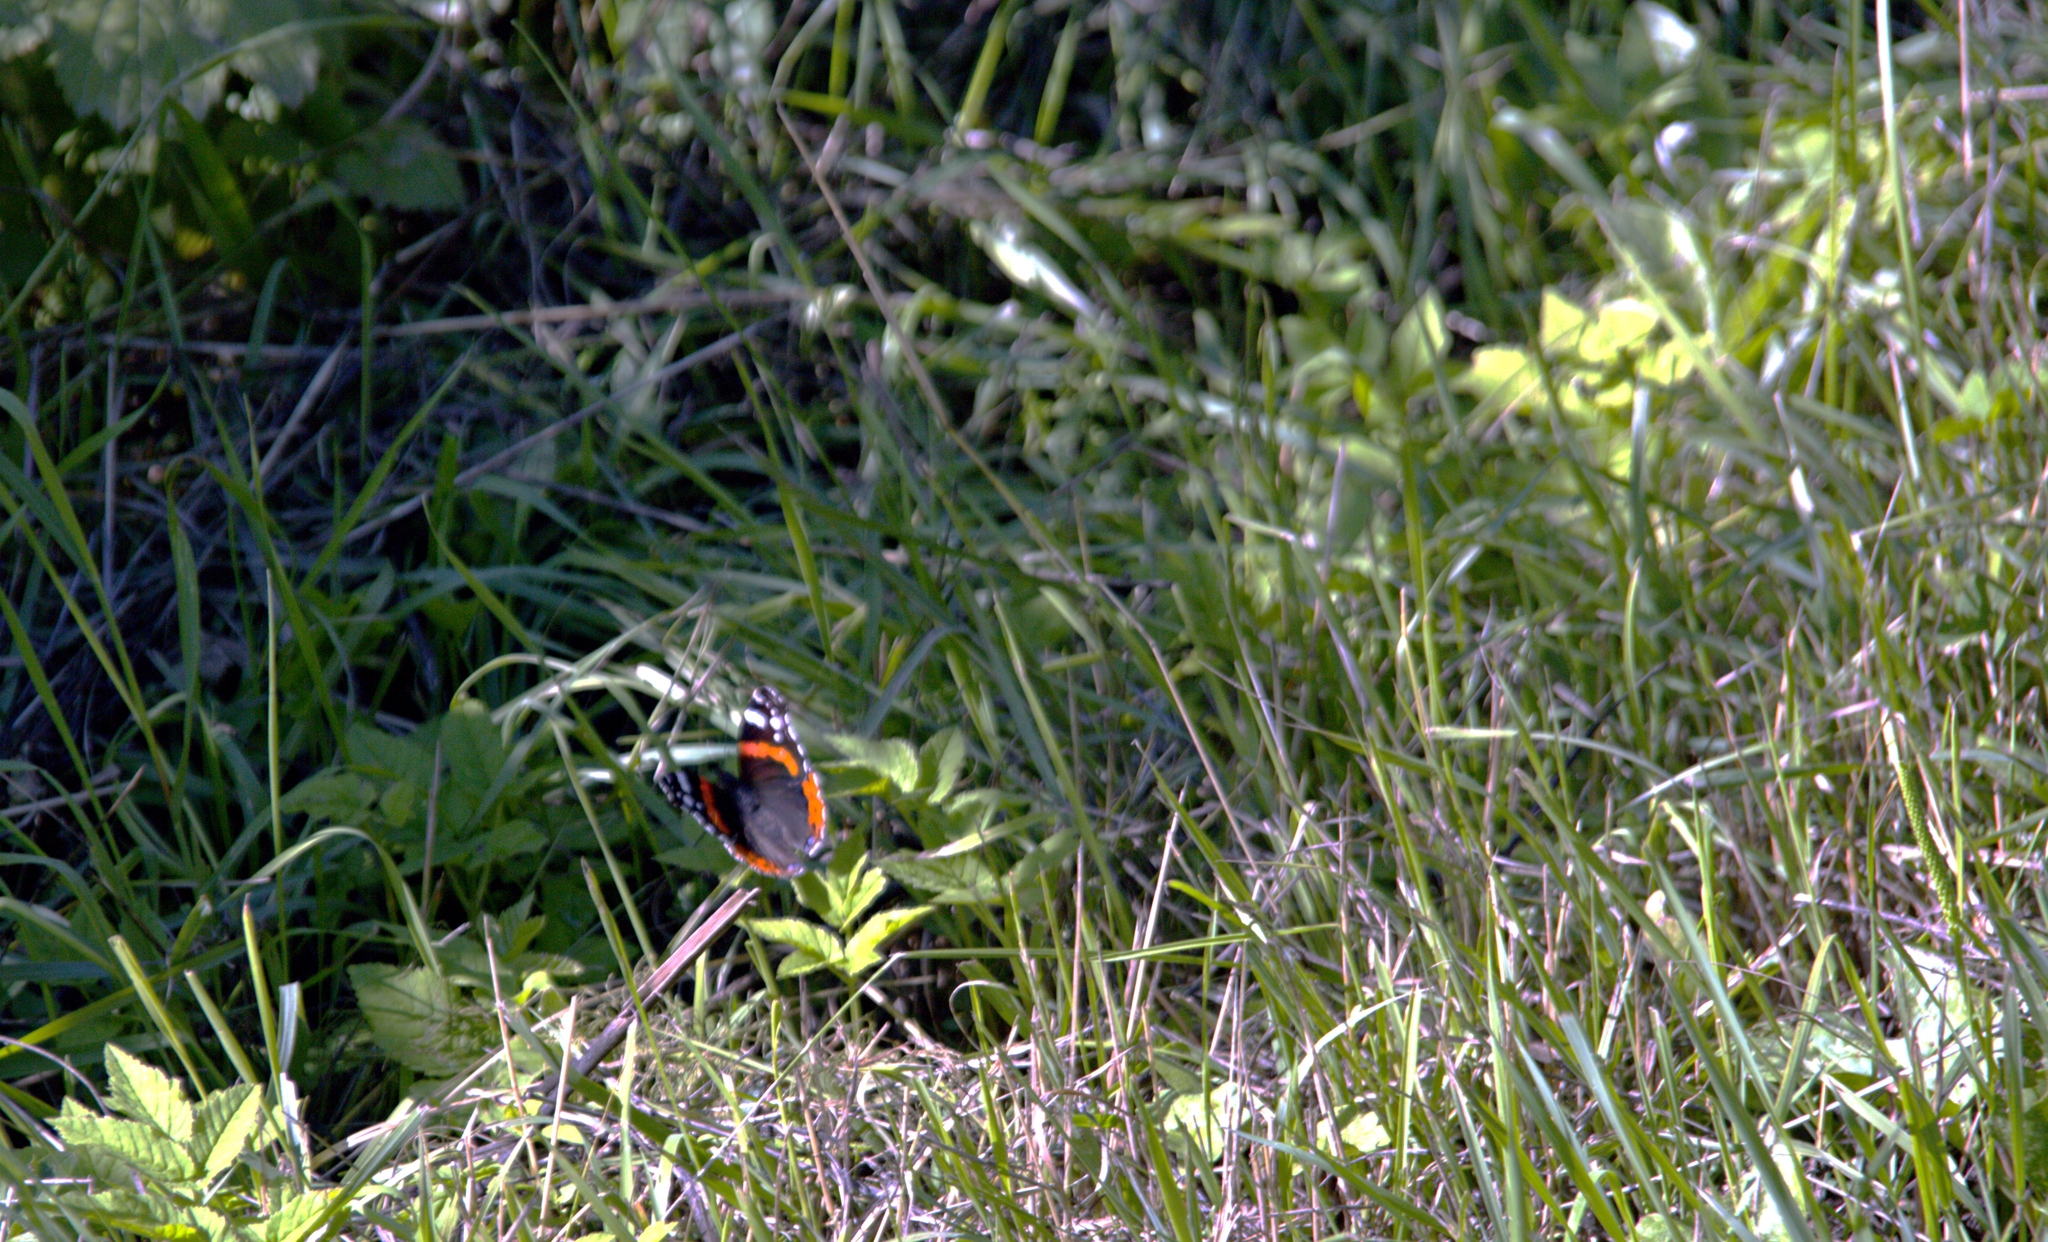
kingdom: Animalia
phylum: Arthropoda
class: Insecta
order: Lepidoptera
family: Nymphalidae
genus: Vanessa
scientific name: Vanessa atalanta
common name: Red admiral
